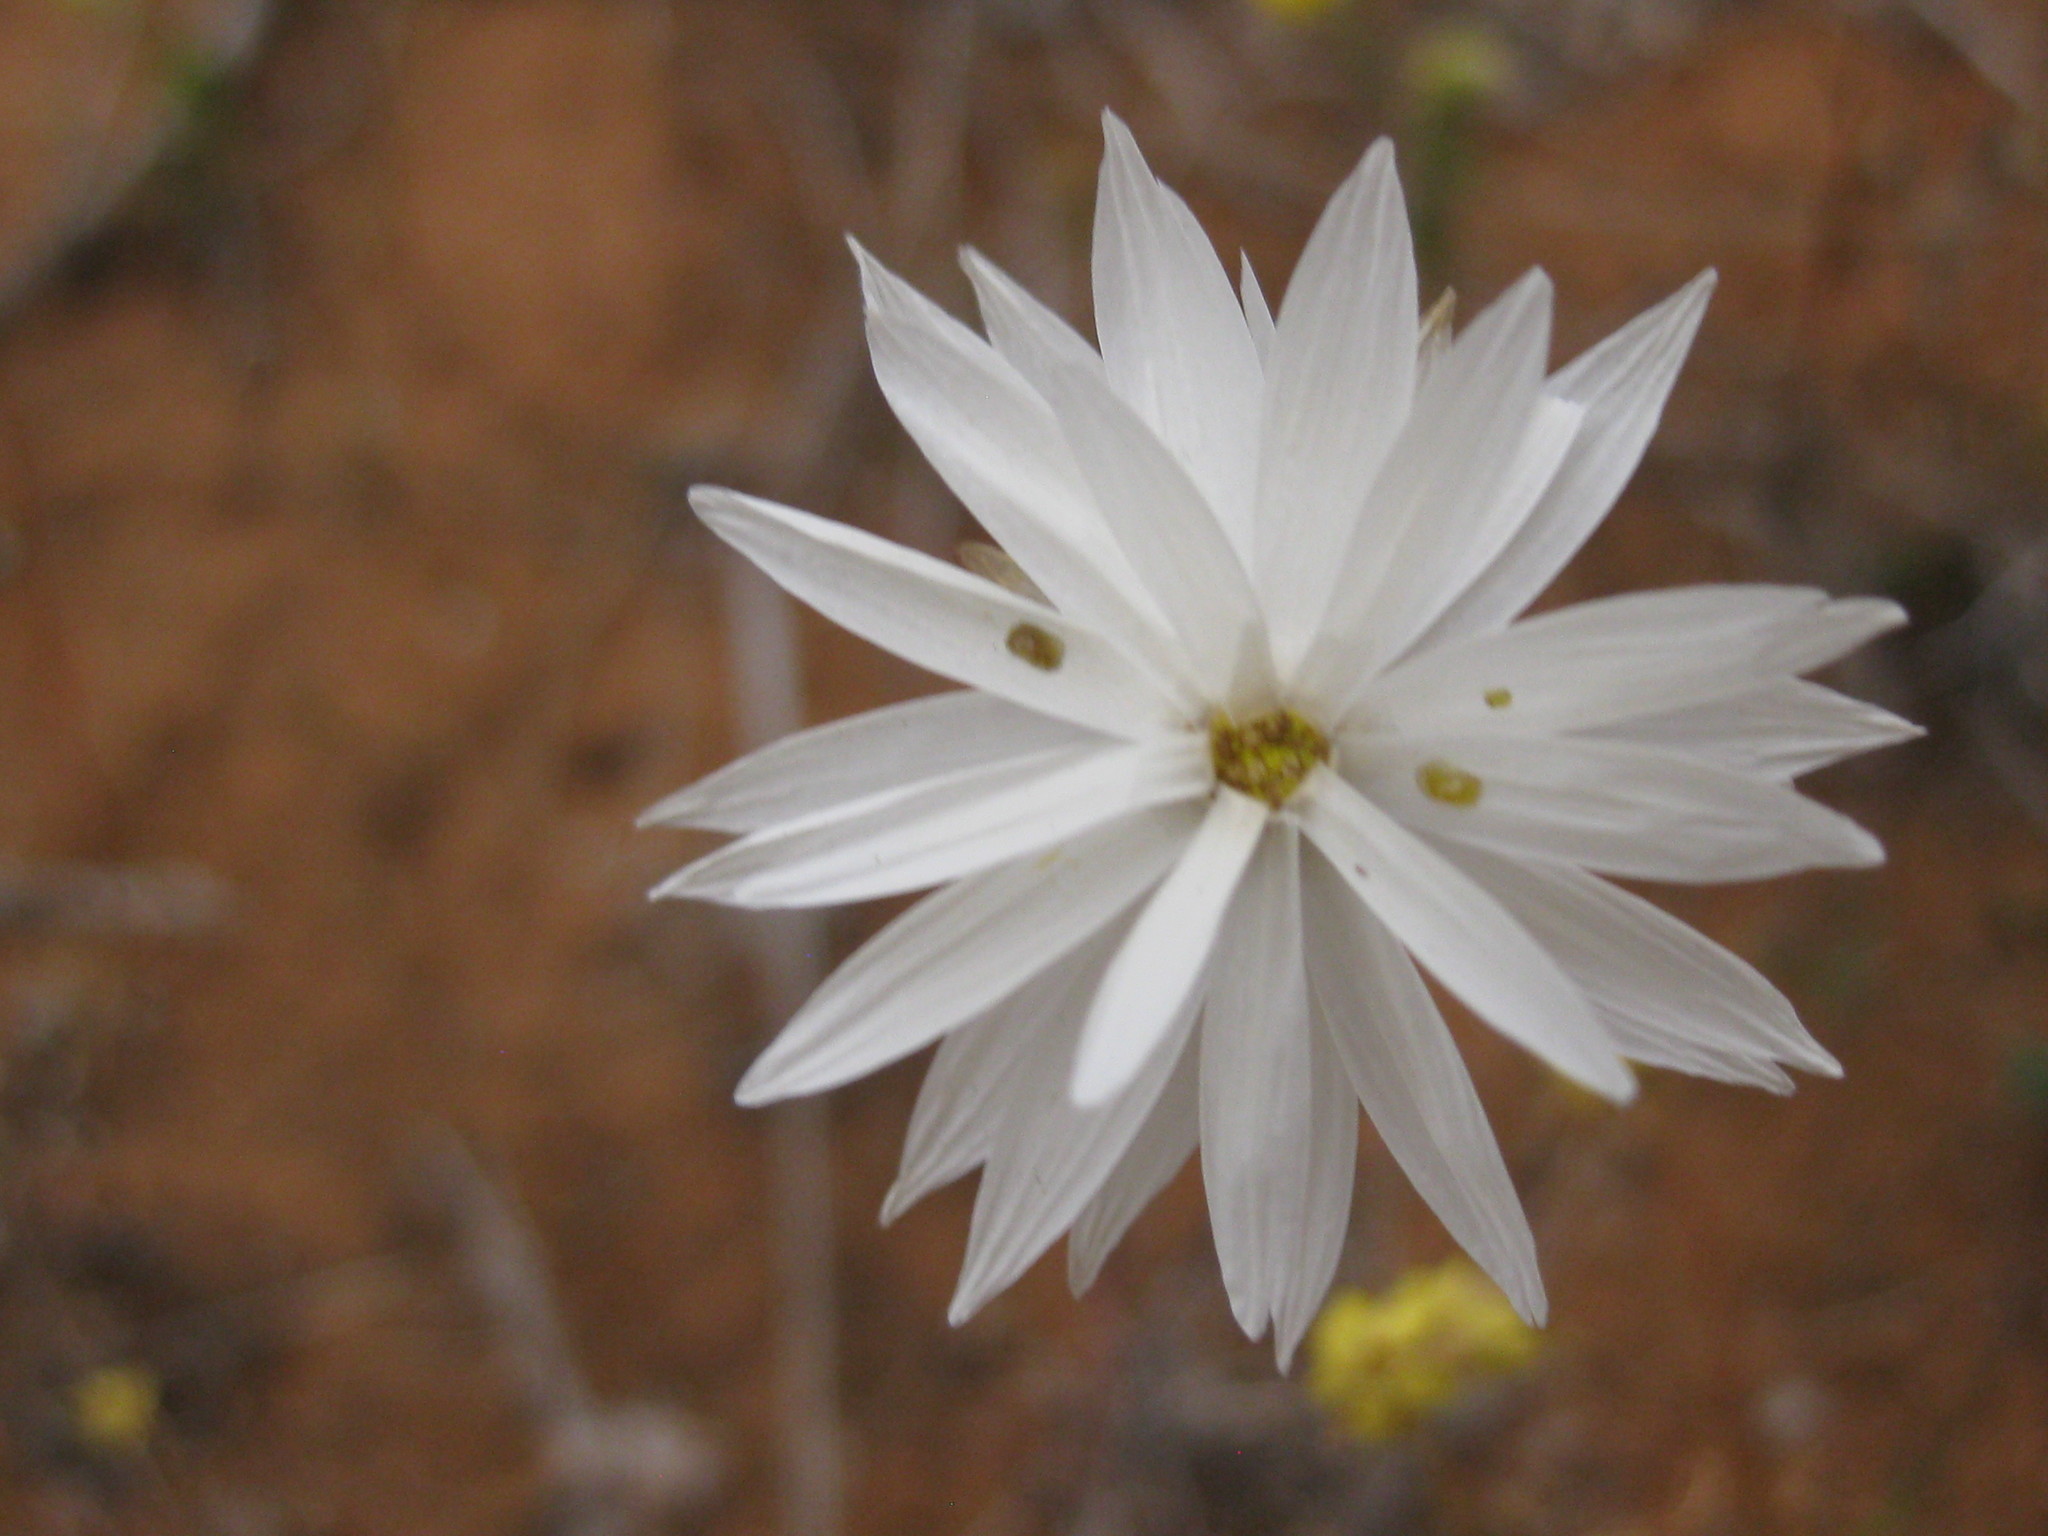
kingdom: Plantae
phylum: Tracheophyta
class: Magnoliopsida
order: Asterales
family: Asteraceae
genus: Rhodanthe
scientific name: Rhodanthe chlorocephala
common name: Rosy sunray
